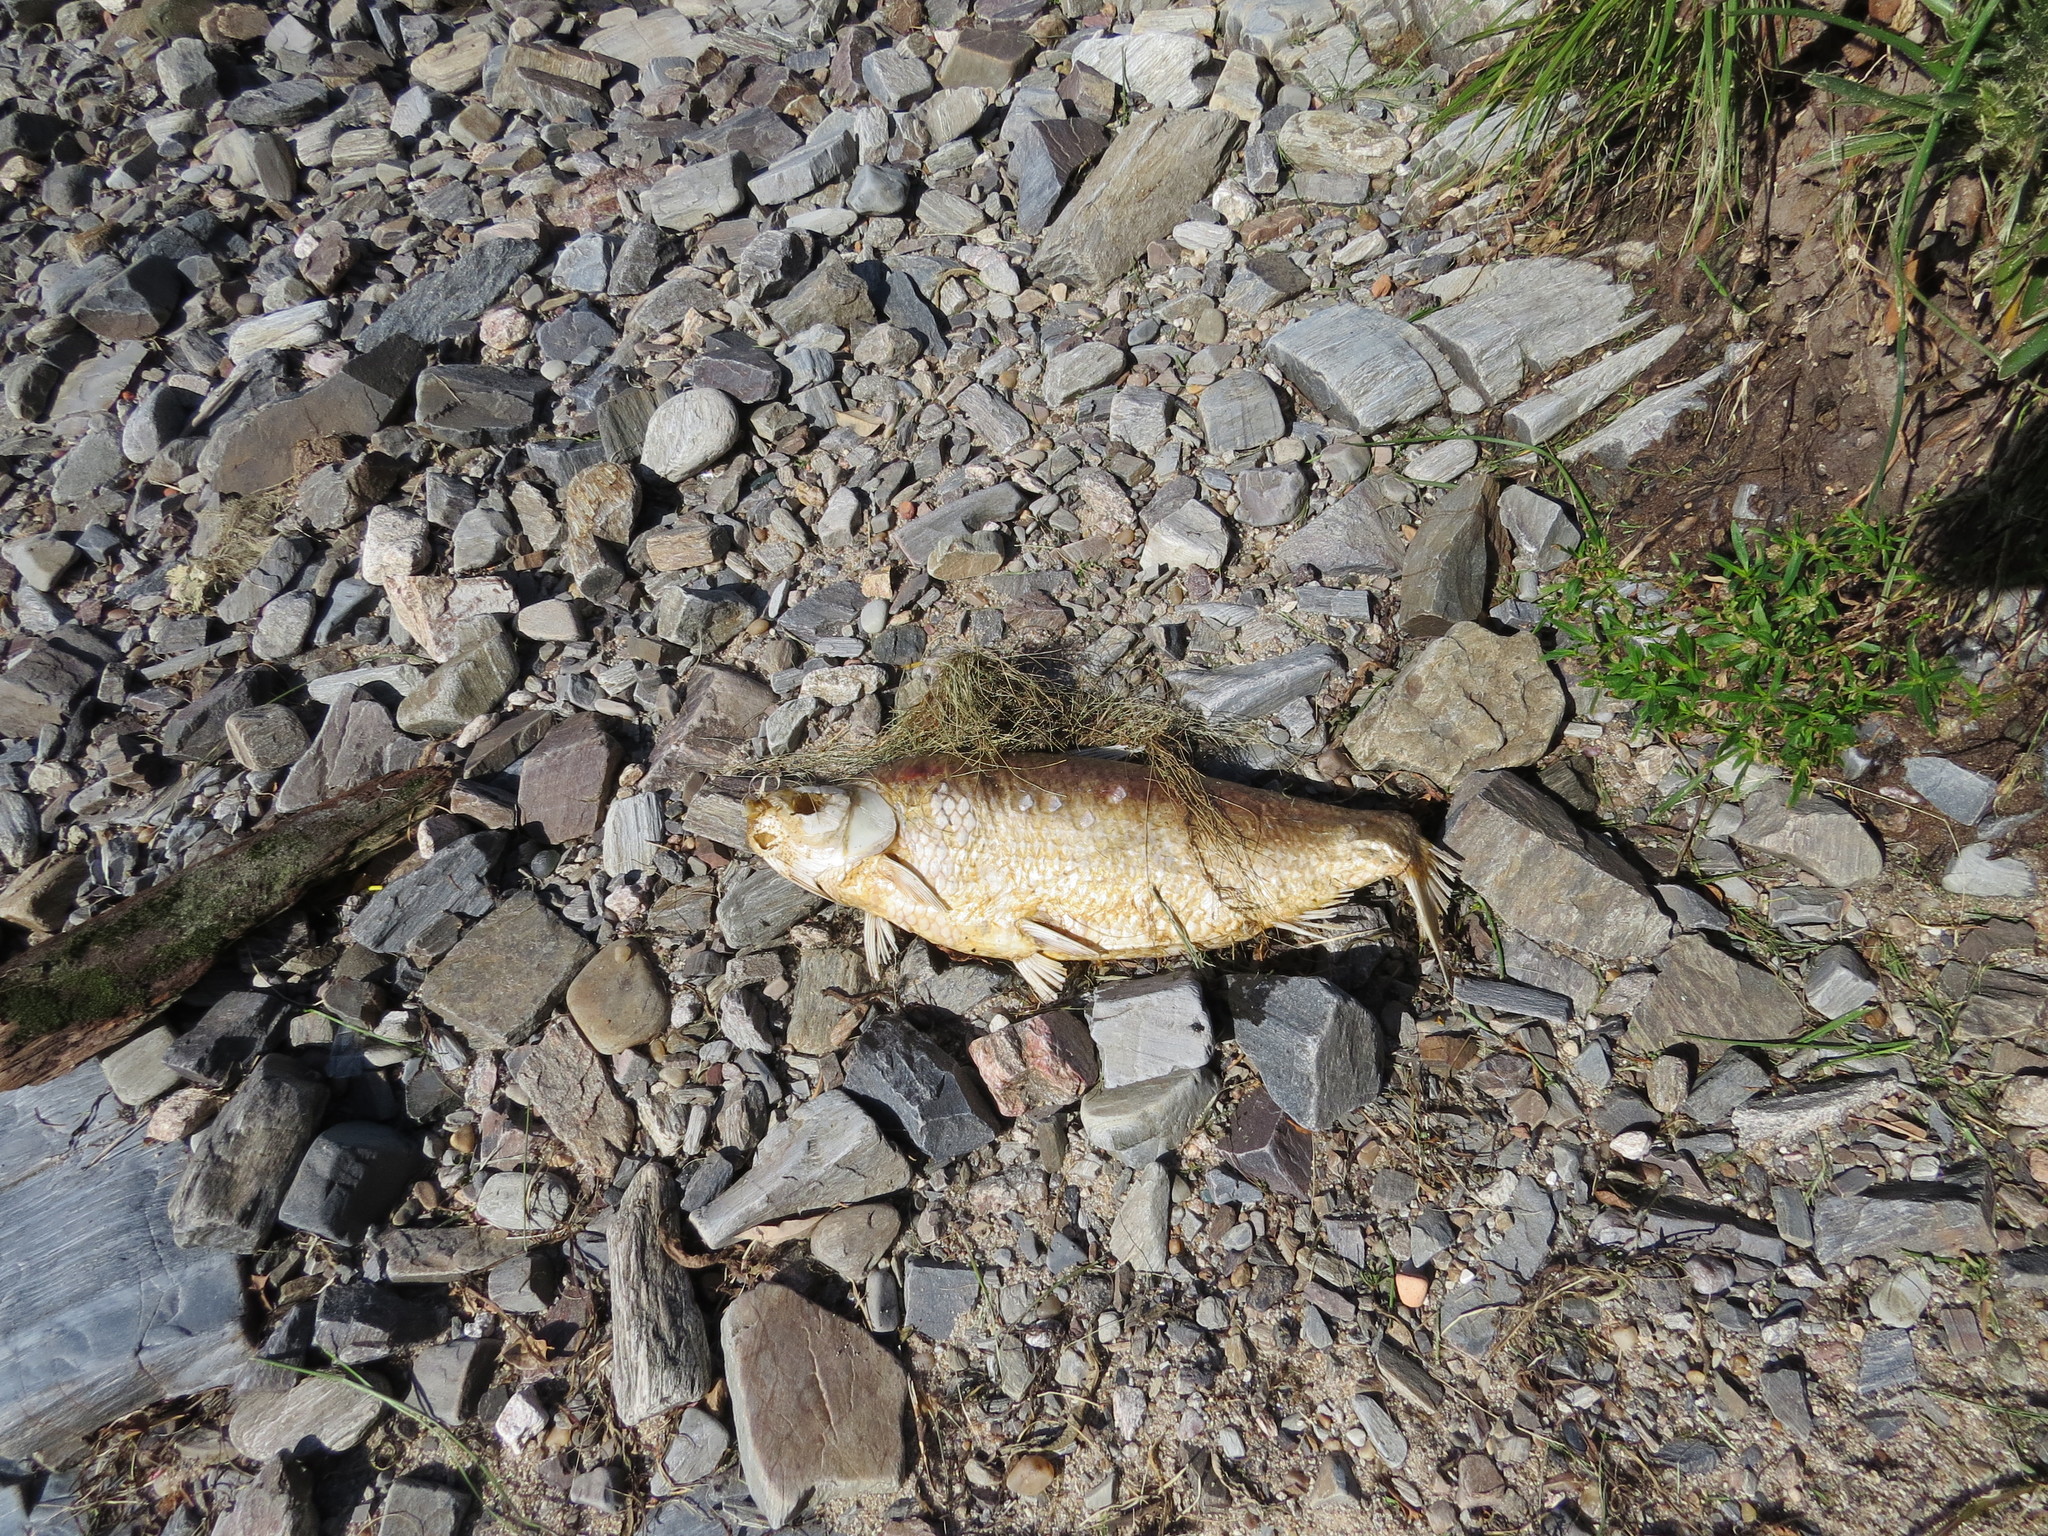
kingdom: Animalia
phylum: Chordata
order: Characiformes
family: Prochilodontidae
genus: Prochilodus
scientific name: Prochilodus lineatus
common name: Curimbata
